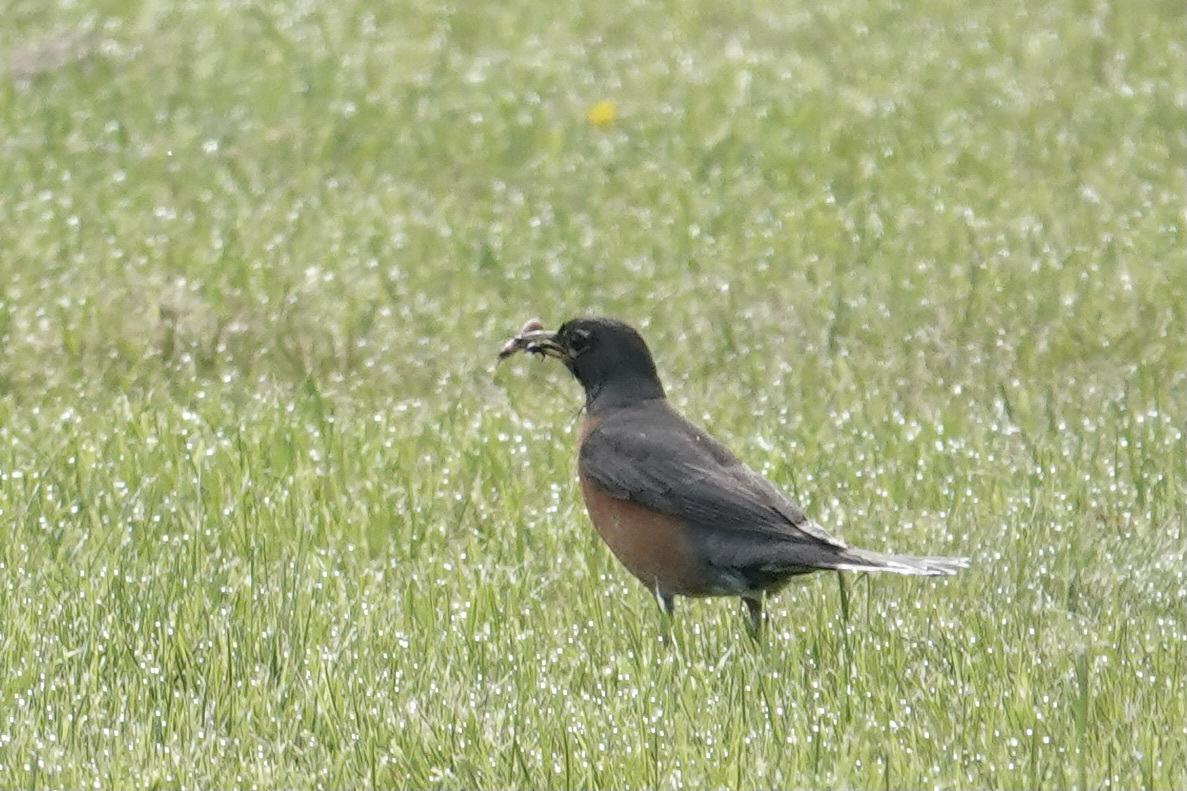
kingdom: Animalia
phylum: Chordata
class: Aves
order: Passeriformes
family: Turdidae
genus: Turdus
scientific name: Turdus migratorius
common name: American robin
